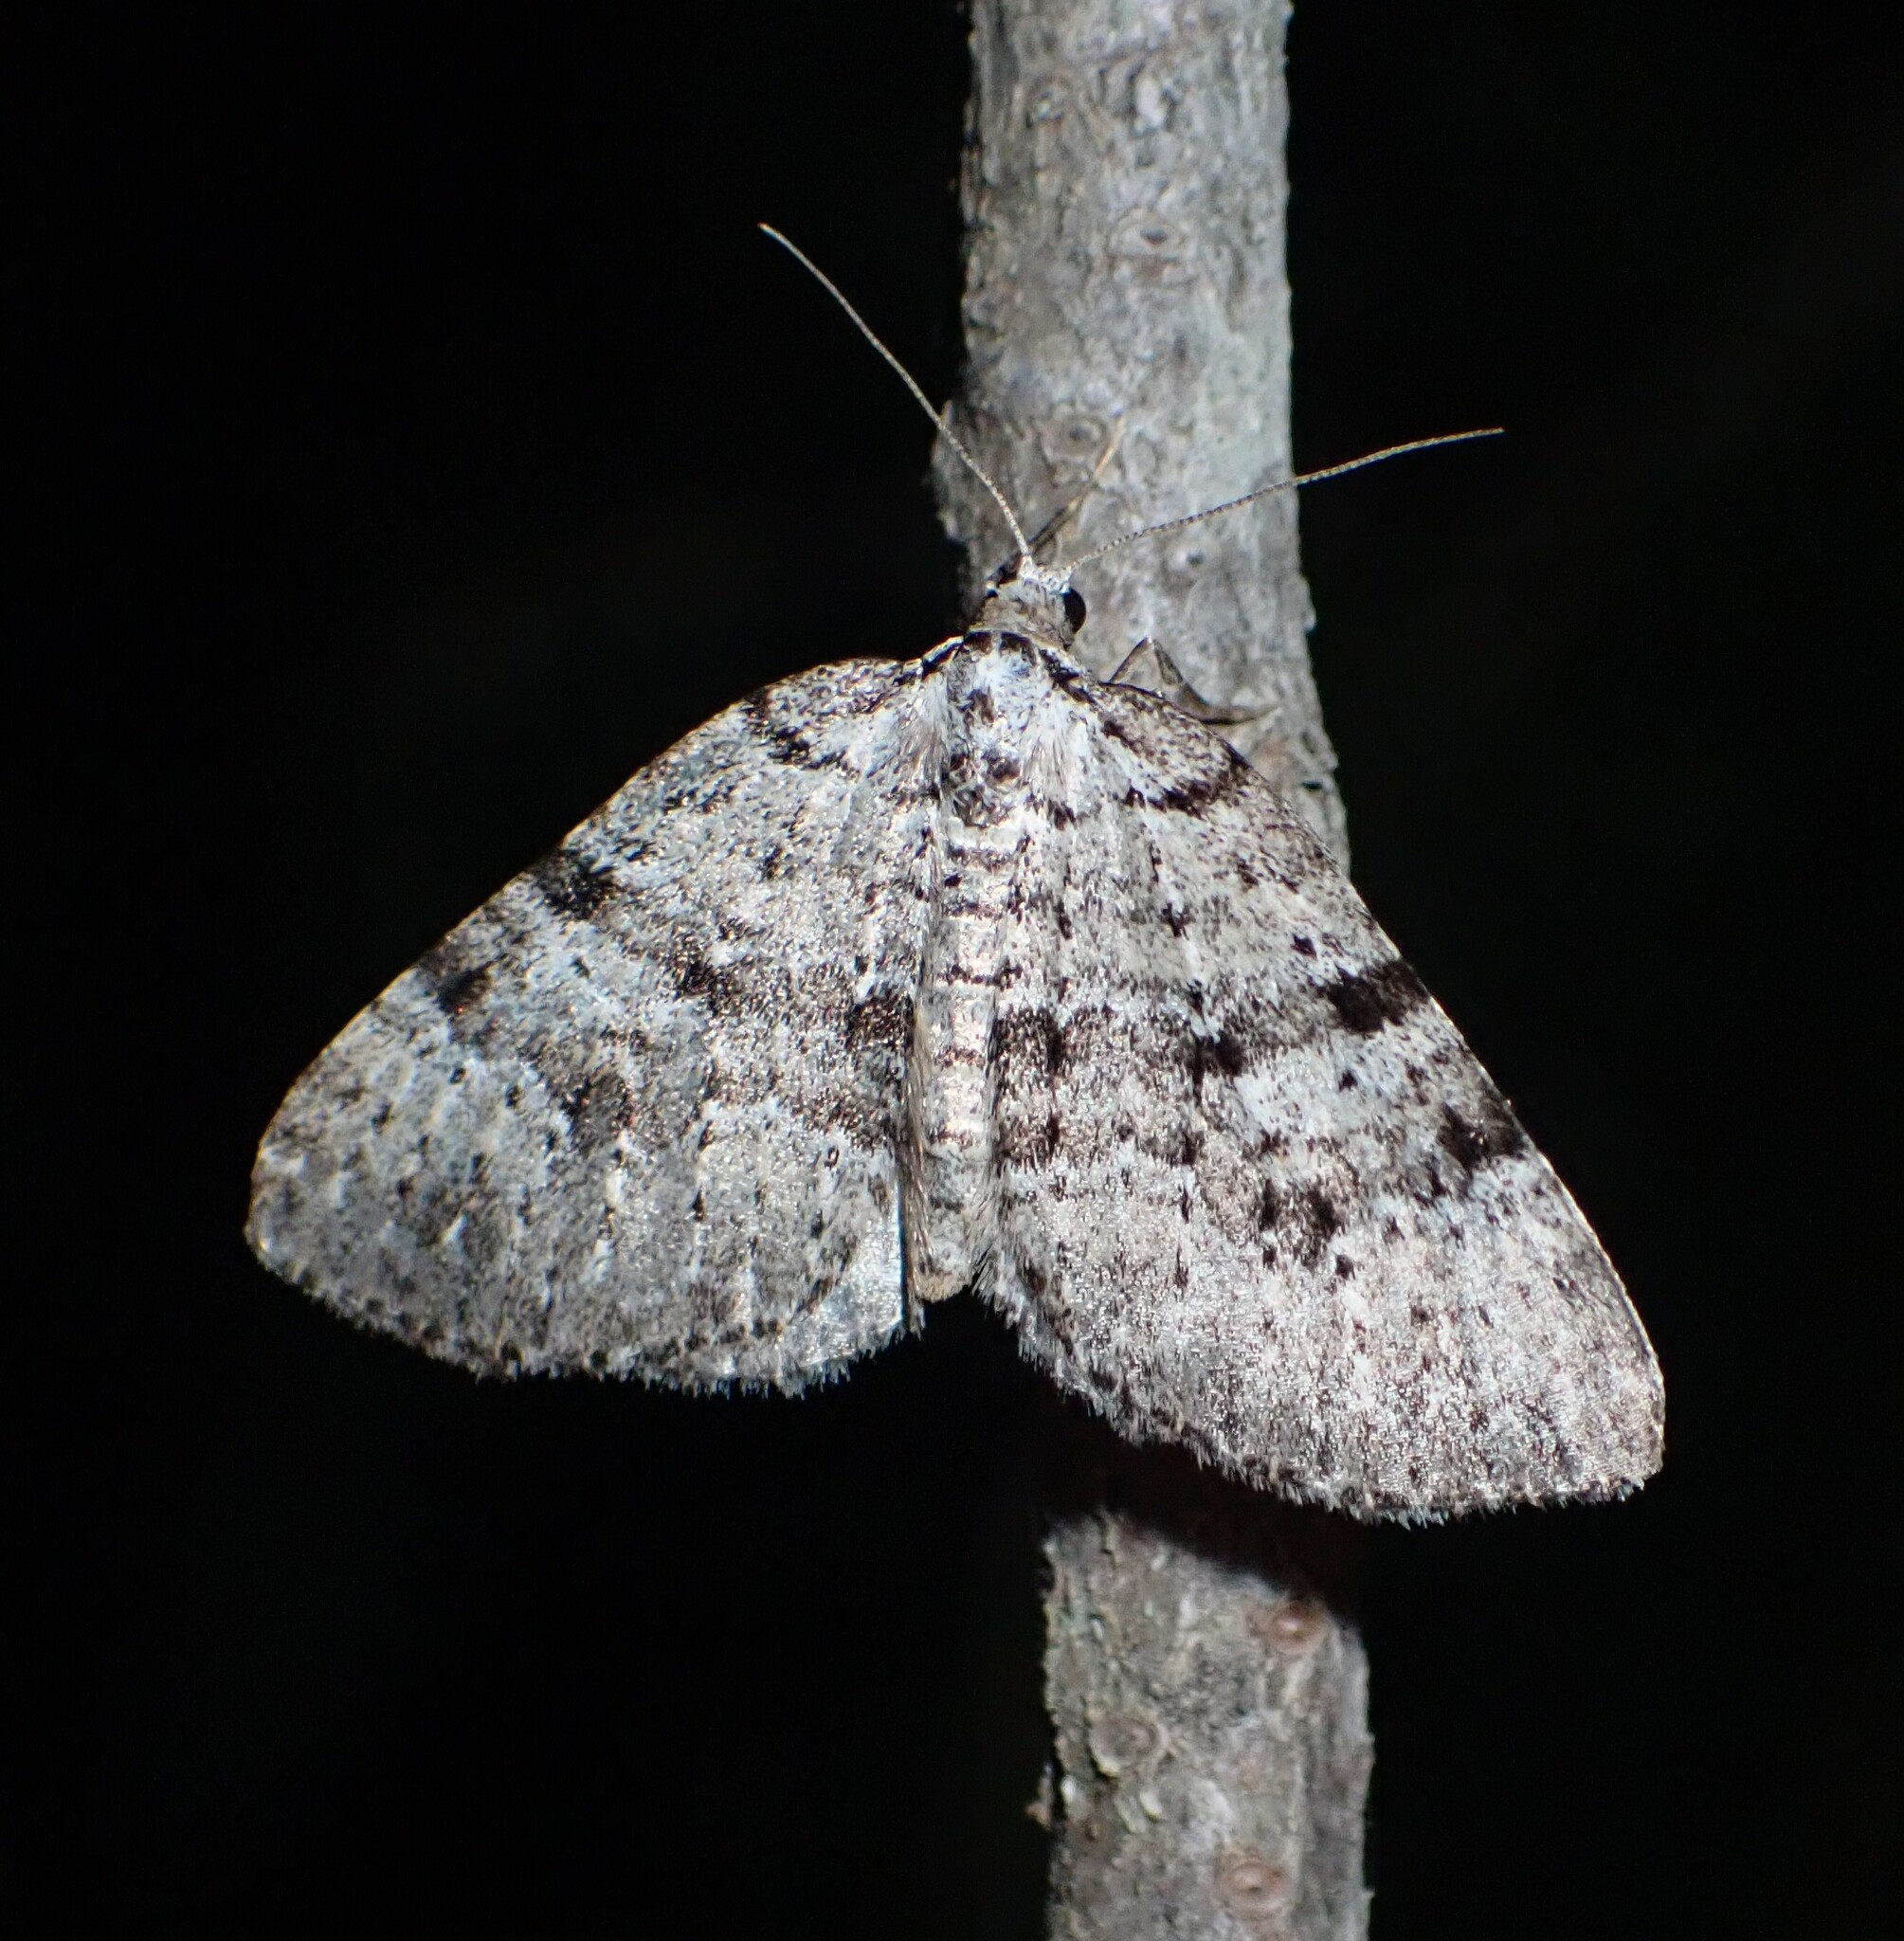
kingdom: Animalia
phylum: Arthropoda
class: Insecta
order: Lepidoptera
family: Geometridae
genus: Perizoma
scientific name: Perizoma curvilinea
